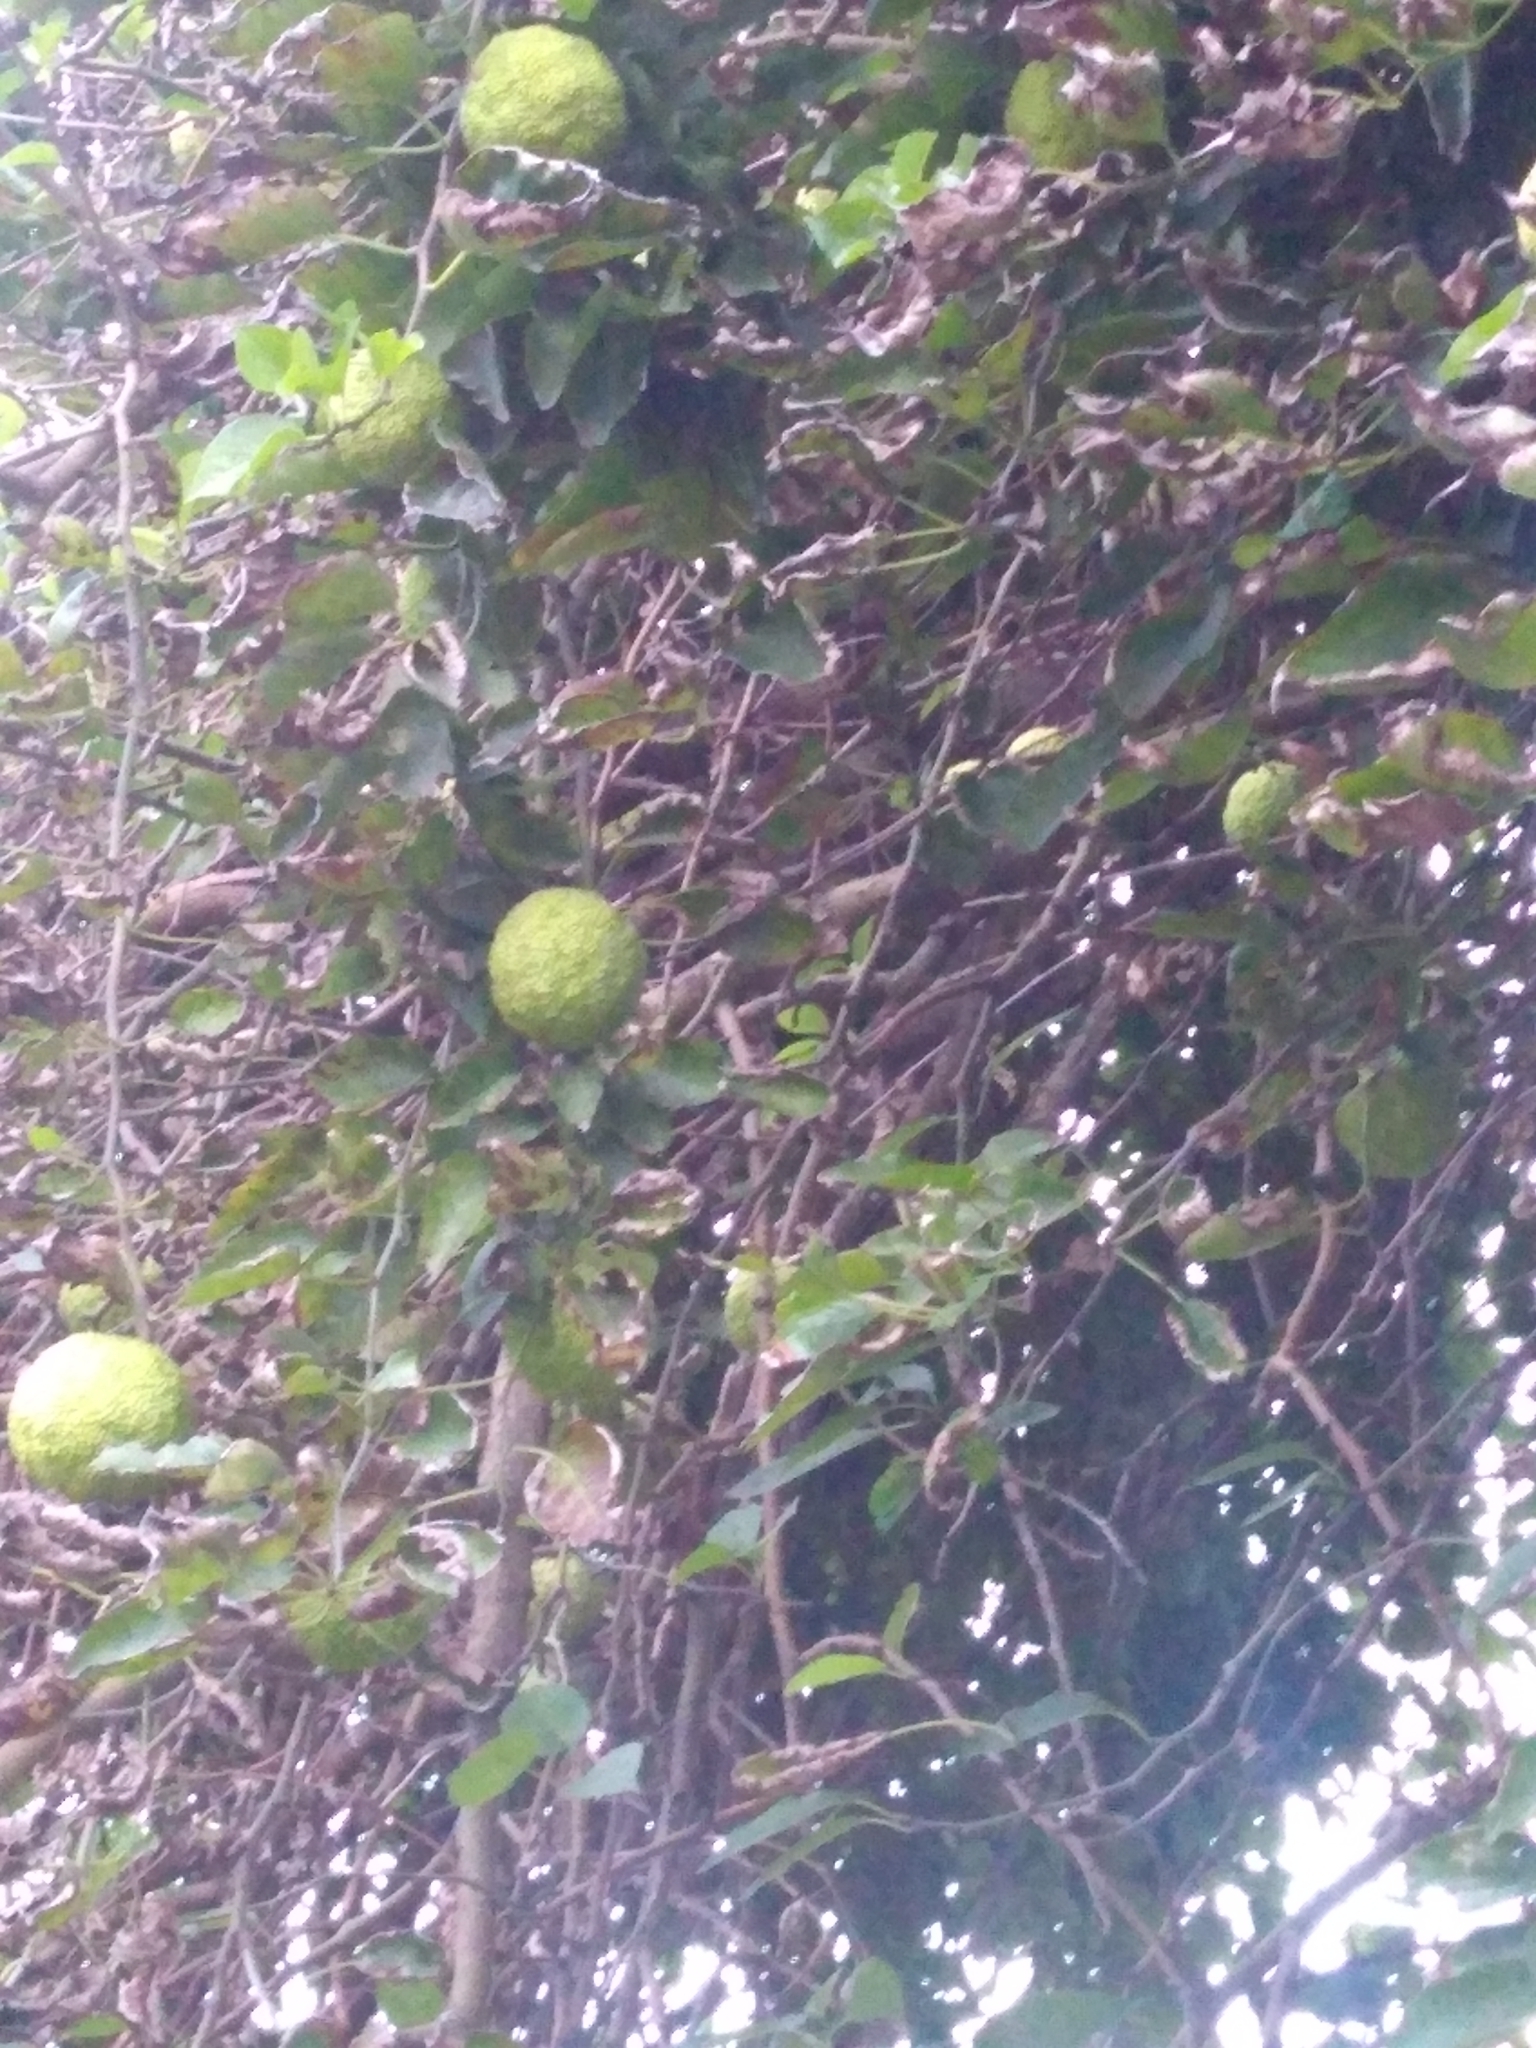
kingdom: Plantae
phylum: Tracheophyta
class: Magnoliopsida
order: Rosales
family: Moraceae
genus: Maclura
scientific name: Maclura pomifera
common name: Osage-orange
